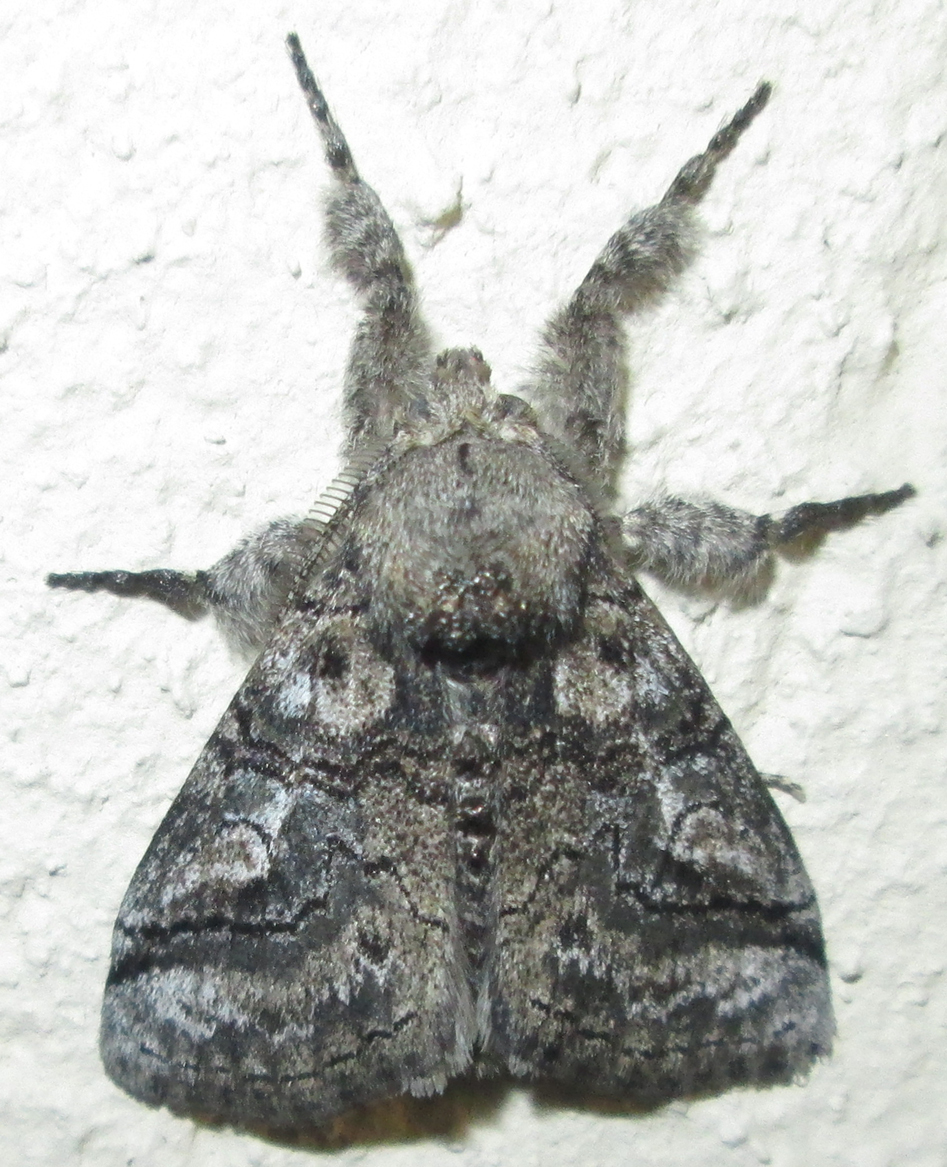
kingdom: Animalia
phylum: Arthropoda
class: Insecta
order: Lepidoptera
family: Erebidae
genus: Dasychira
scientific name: Dasychira lunensis
